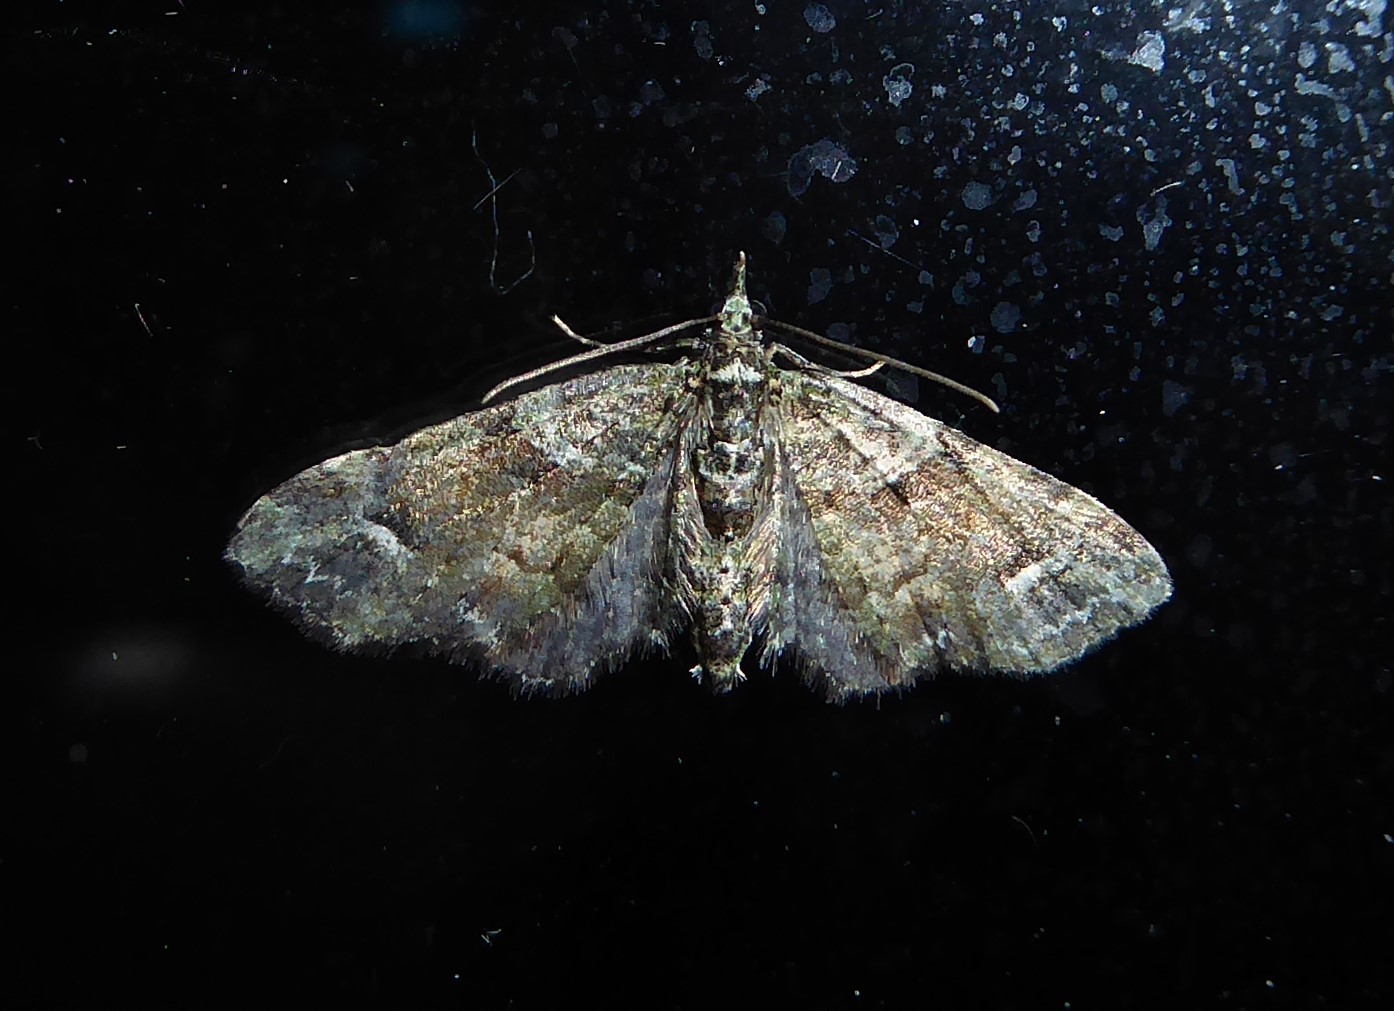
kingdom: Animalia
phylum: Arthropoda
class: Insecta
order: Lepidoptera
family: Geometridae
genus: Idaea
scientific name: Idaea mutanda
